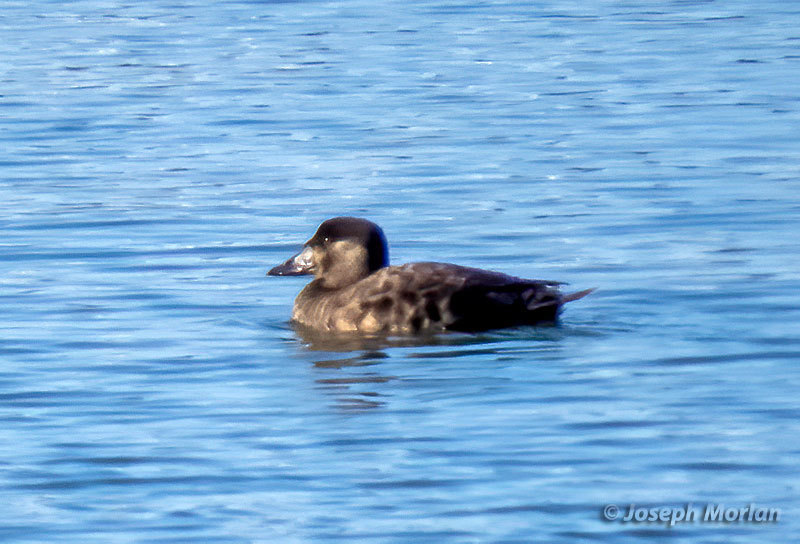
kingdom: Animalia
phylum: Chordata
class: Aves
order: Anseriformes
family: Anatidae
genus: Melanitta
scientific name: Melanitta perspicillata
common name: Surf scoter
